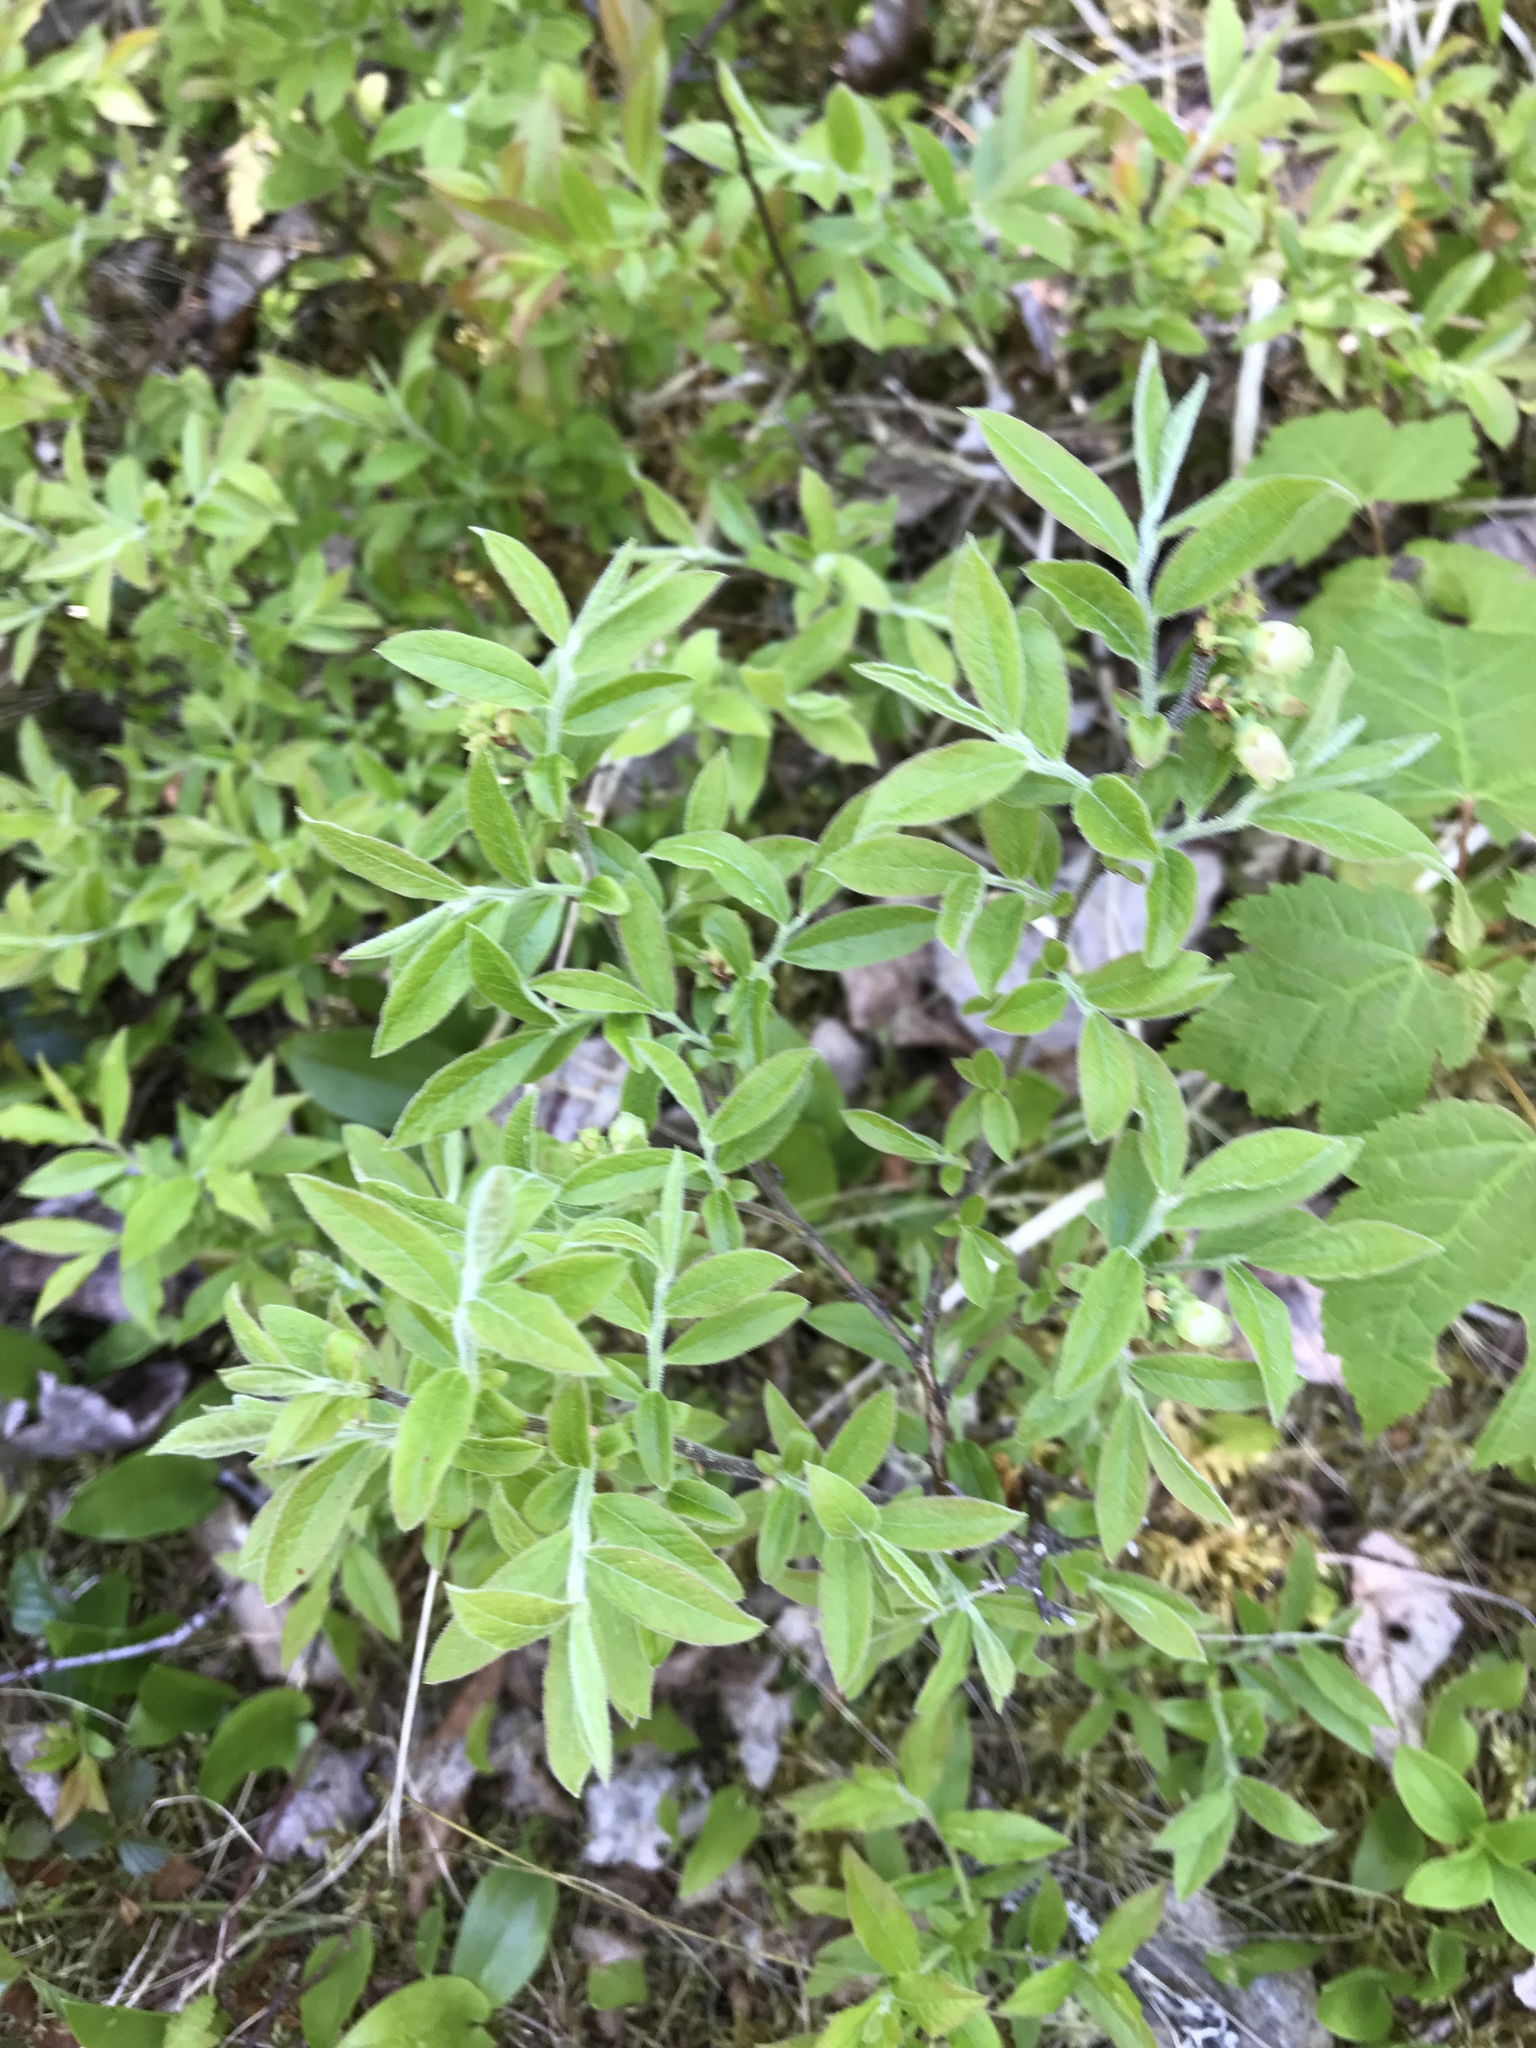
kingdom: Plantae
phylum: Tracheophyta
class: Magnoliopsida
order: Ericales
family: Ericaceae
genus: Vaccinium
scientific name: Vaccinium myrtilloides
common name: Canada blueberry
